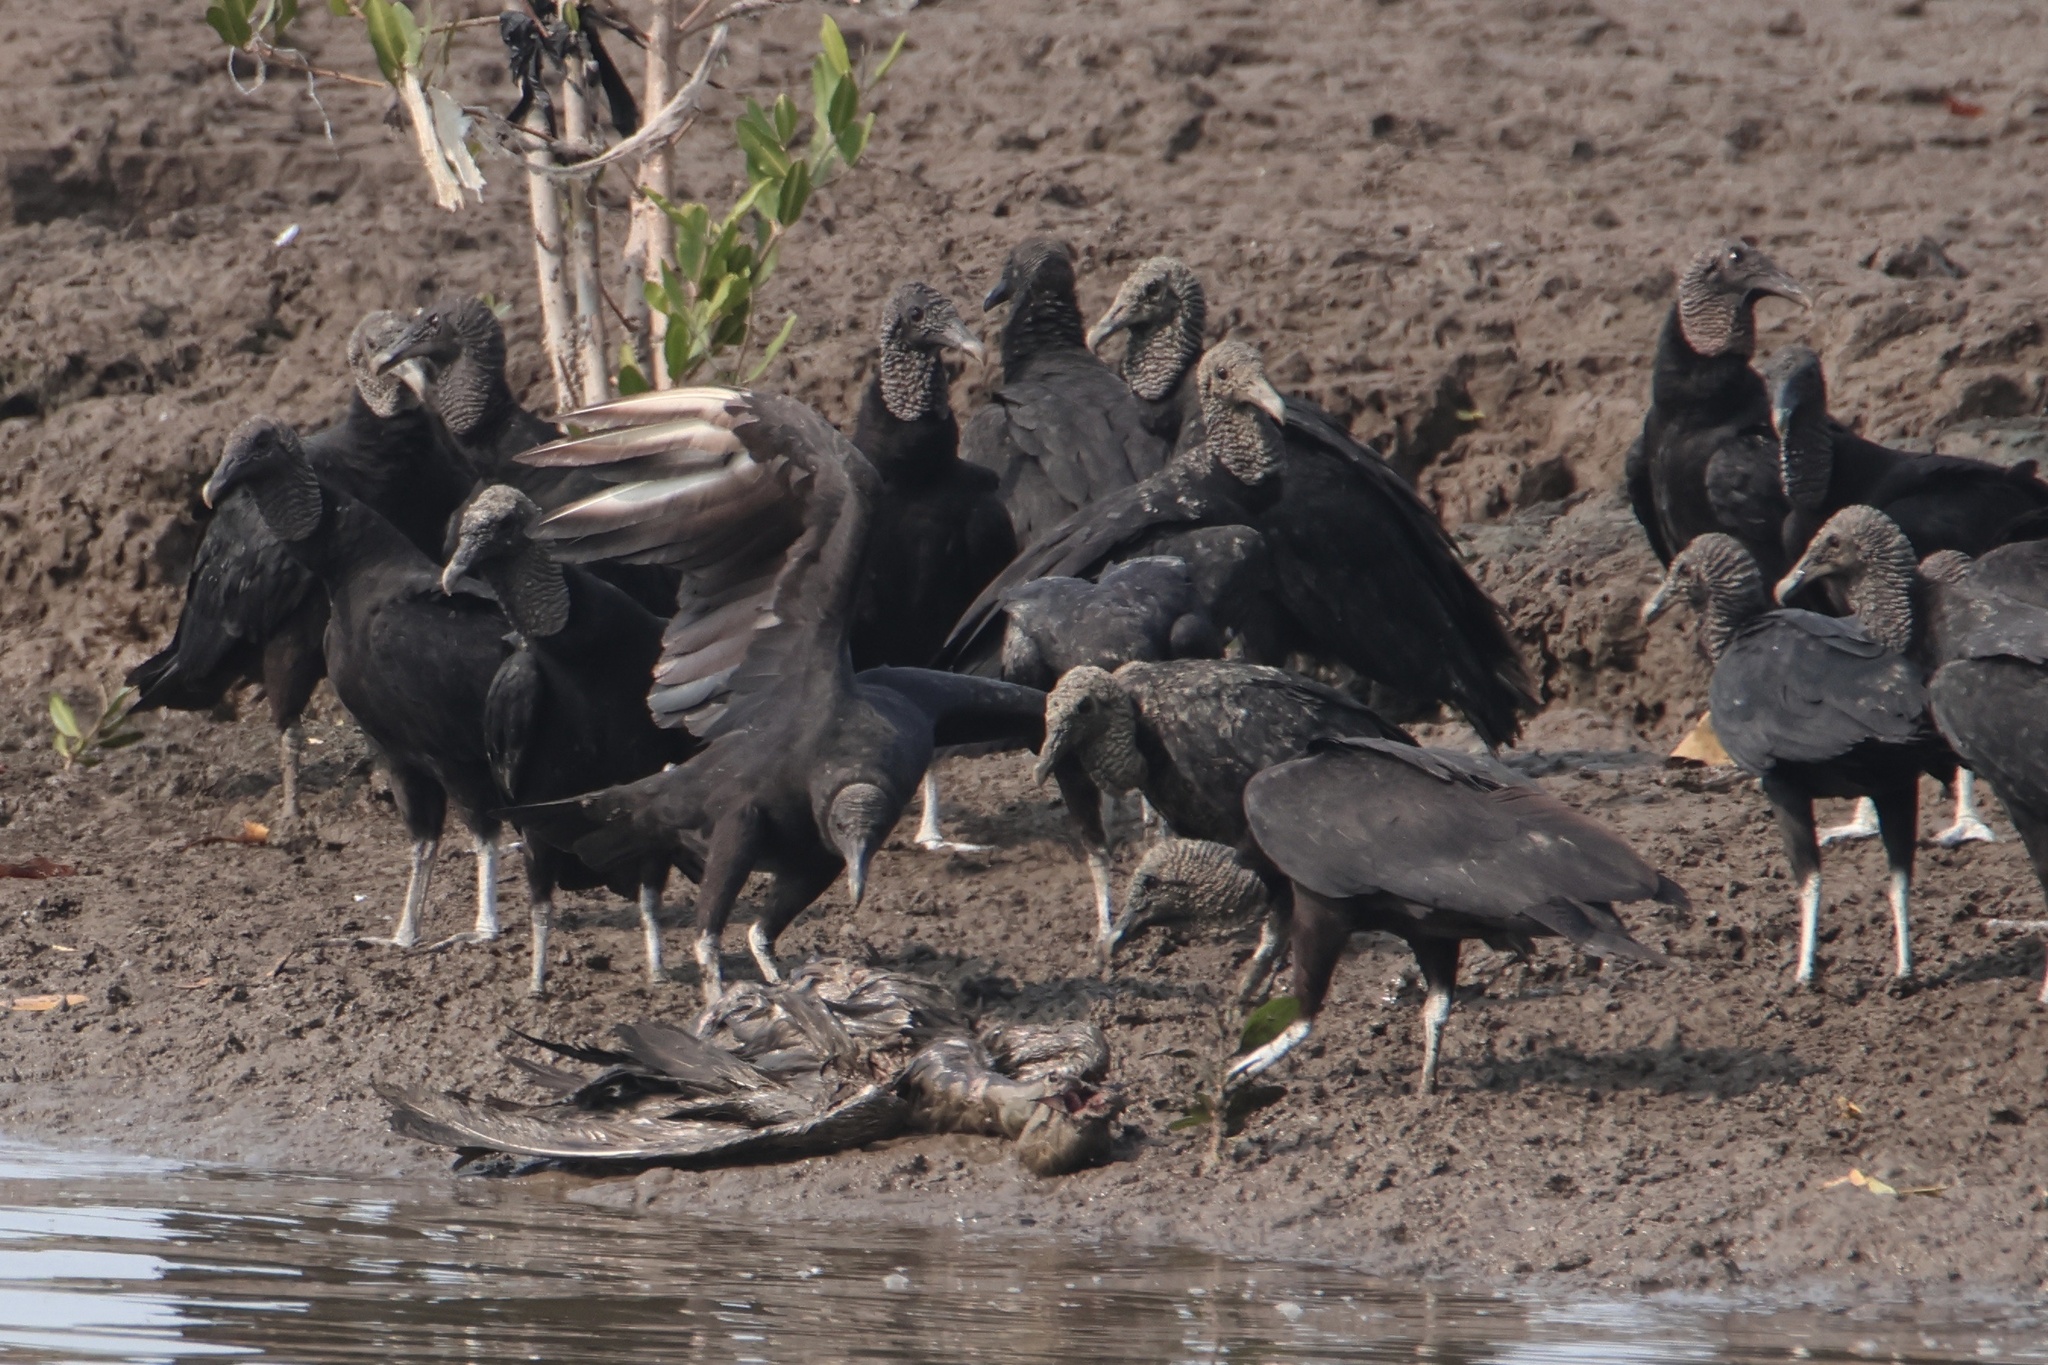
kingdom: Animalia
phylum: Chordata
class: Aves
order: Accipitriformes
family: Cathartidae
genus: Coragyps
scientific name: Coragyps atratus
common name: Black vulture
